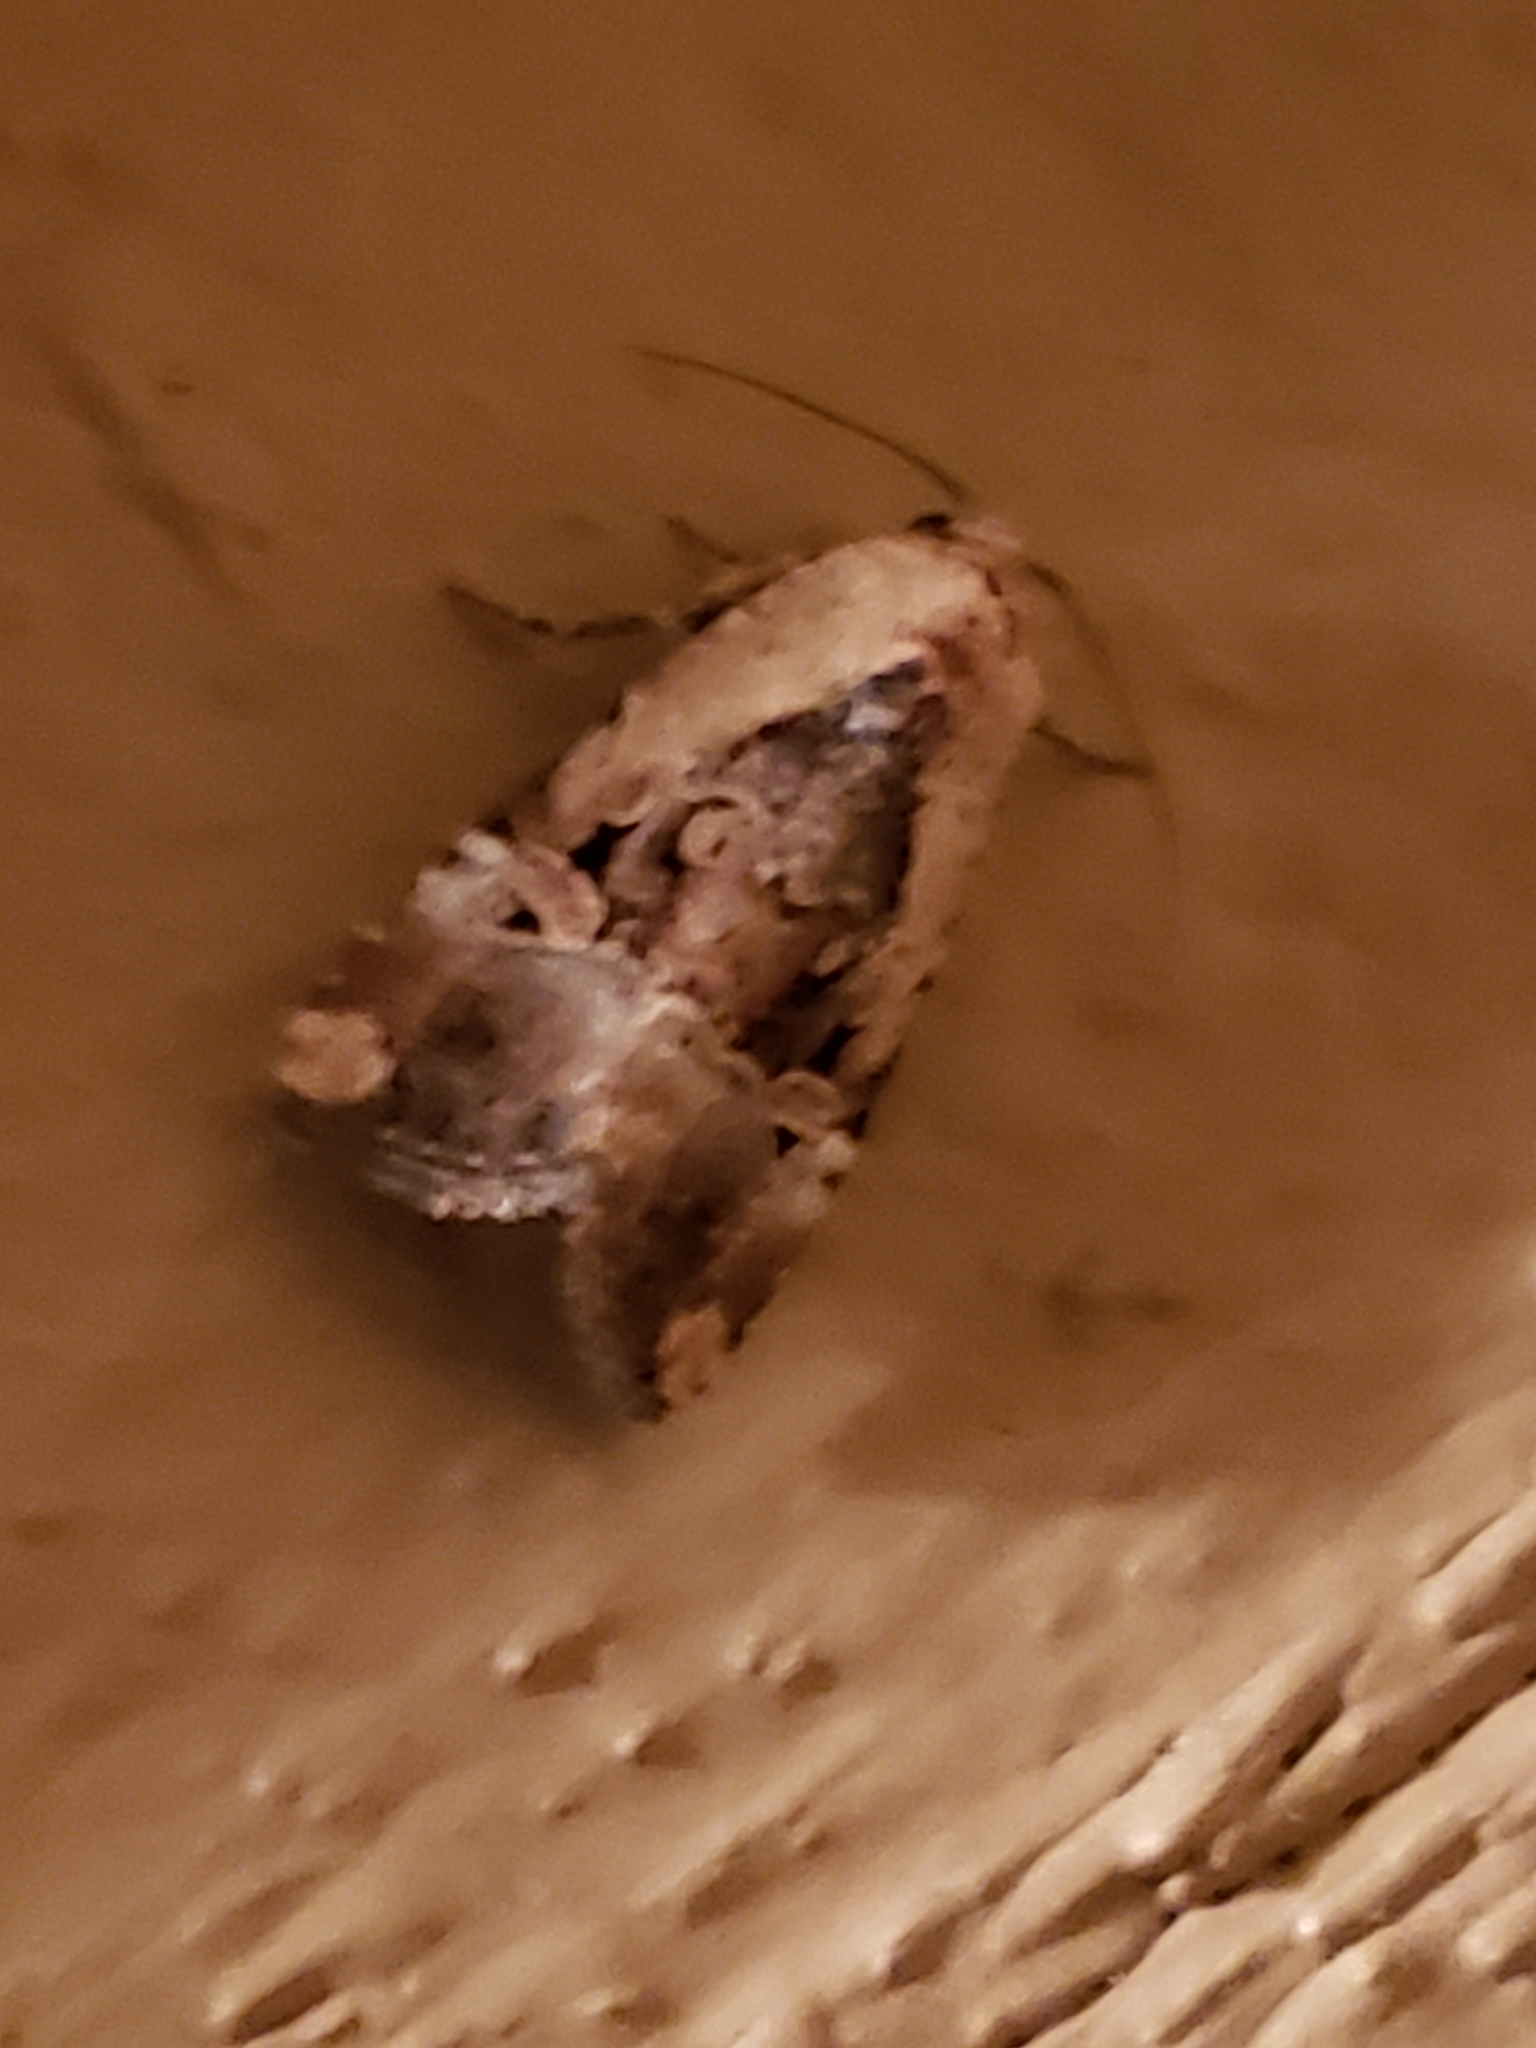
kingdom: Animalia
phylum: Arthropoda
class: Insecta
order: Lepidoptera
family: Noctuidae
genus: Elaphria
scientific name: Elaphria chalcedonia
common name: Chalcedony midget
